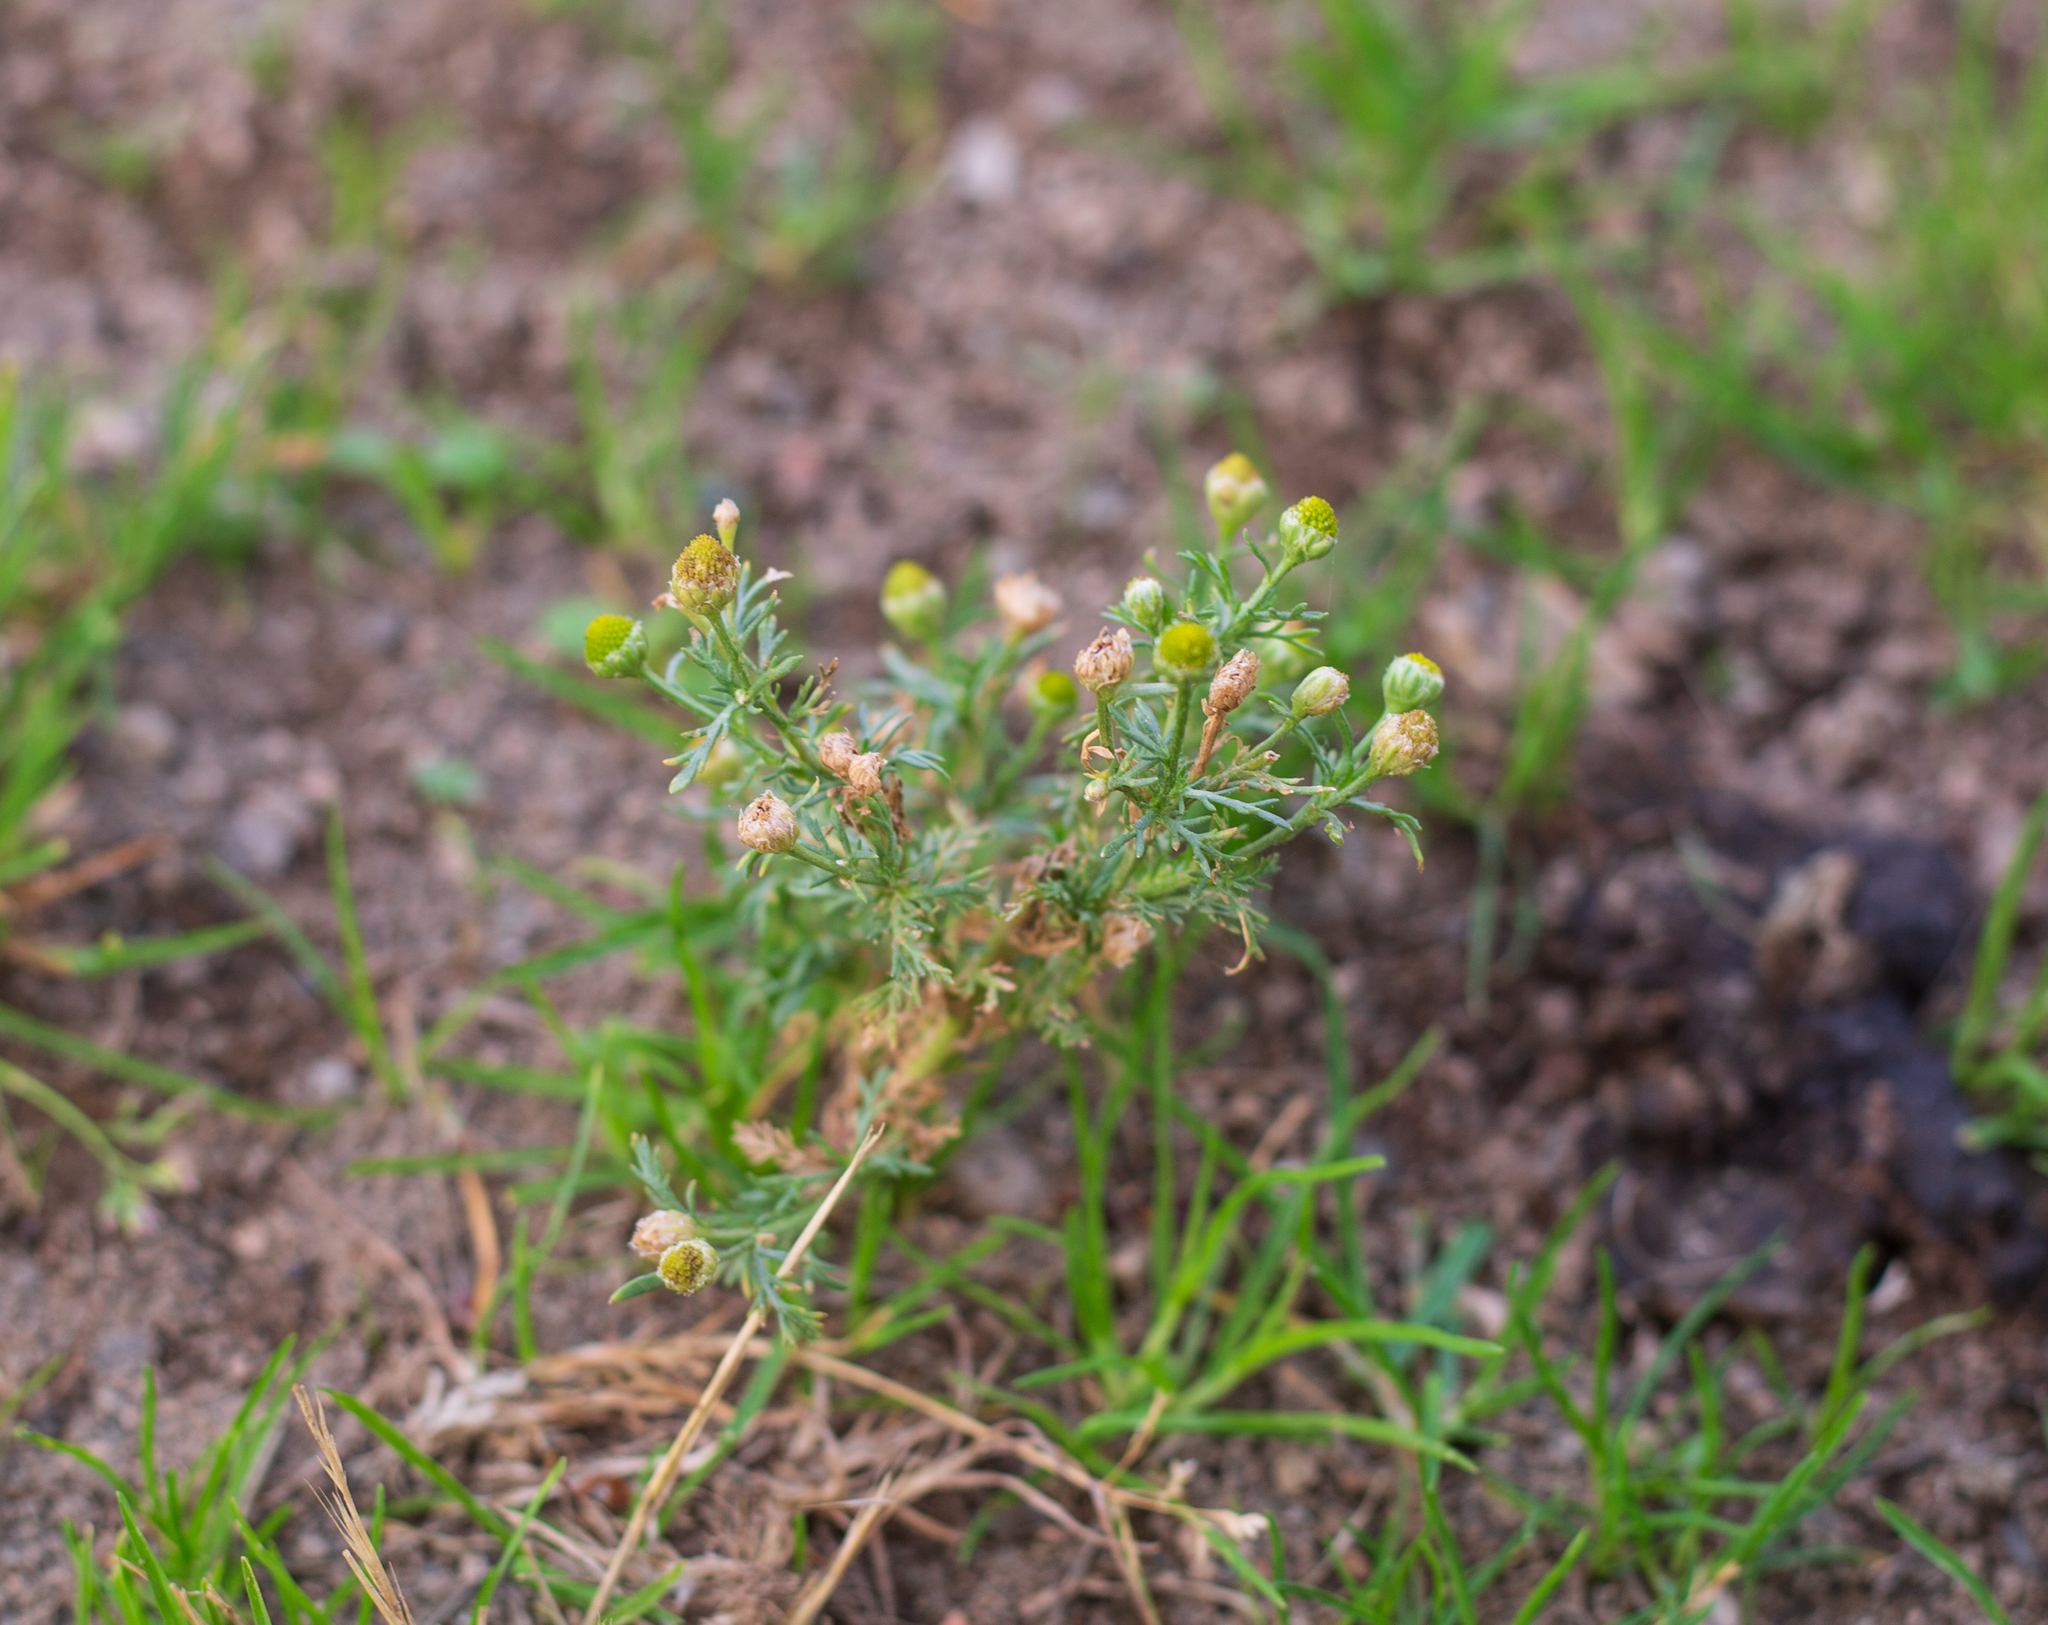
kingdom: Plantae
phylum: Tracheophyta
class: Magnoliopsida
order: Asterales
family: Asteraceae
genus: Matricaria
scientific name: Matricaria discoidea
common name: Disc mayweed
